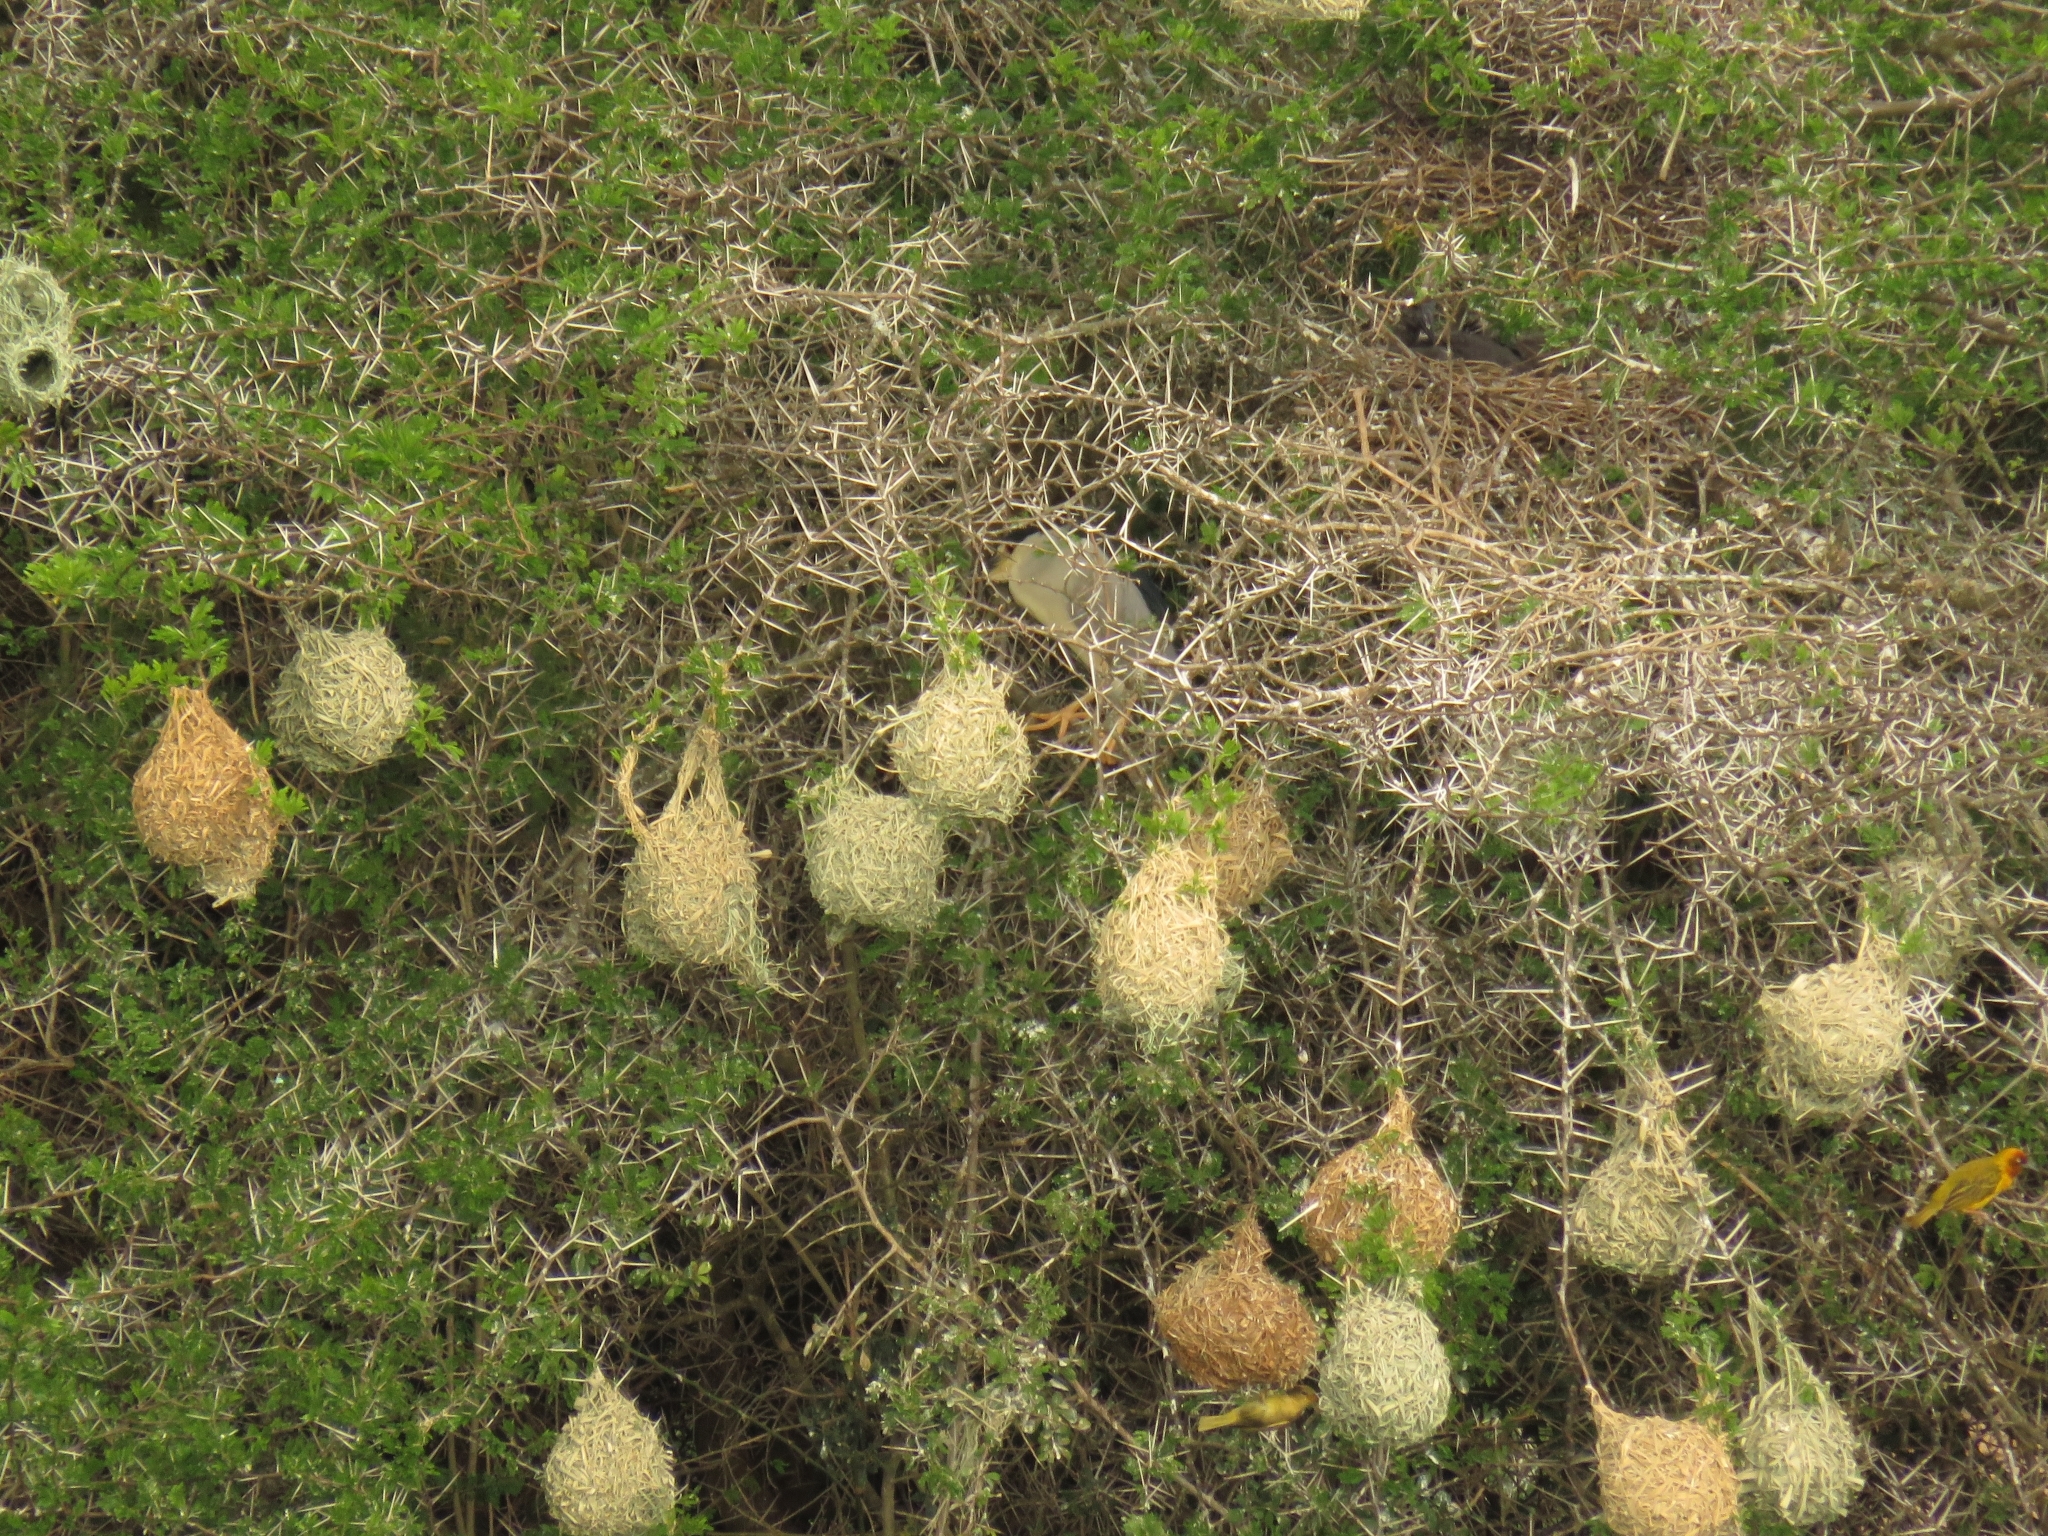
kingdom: Animalia
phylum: Chordata
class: Aves
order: Pelecaniformes
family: Ardeidae
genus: Nycticorax
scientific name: Nycticorax nycticorax
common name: Black-crowned night heron
